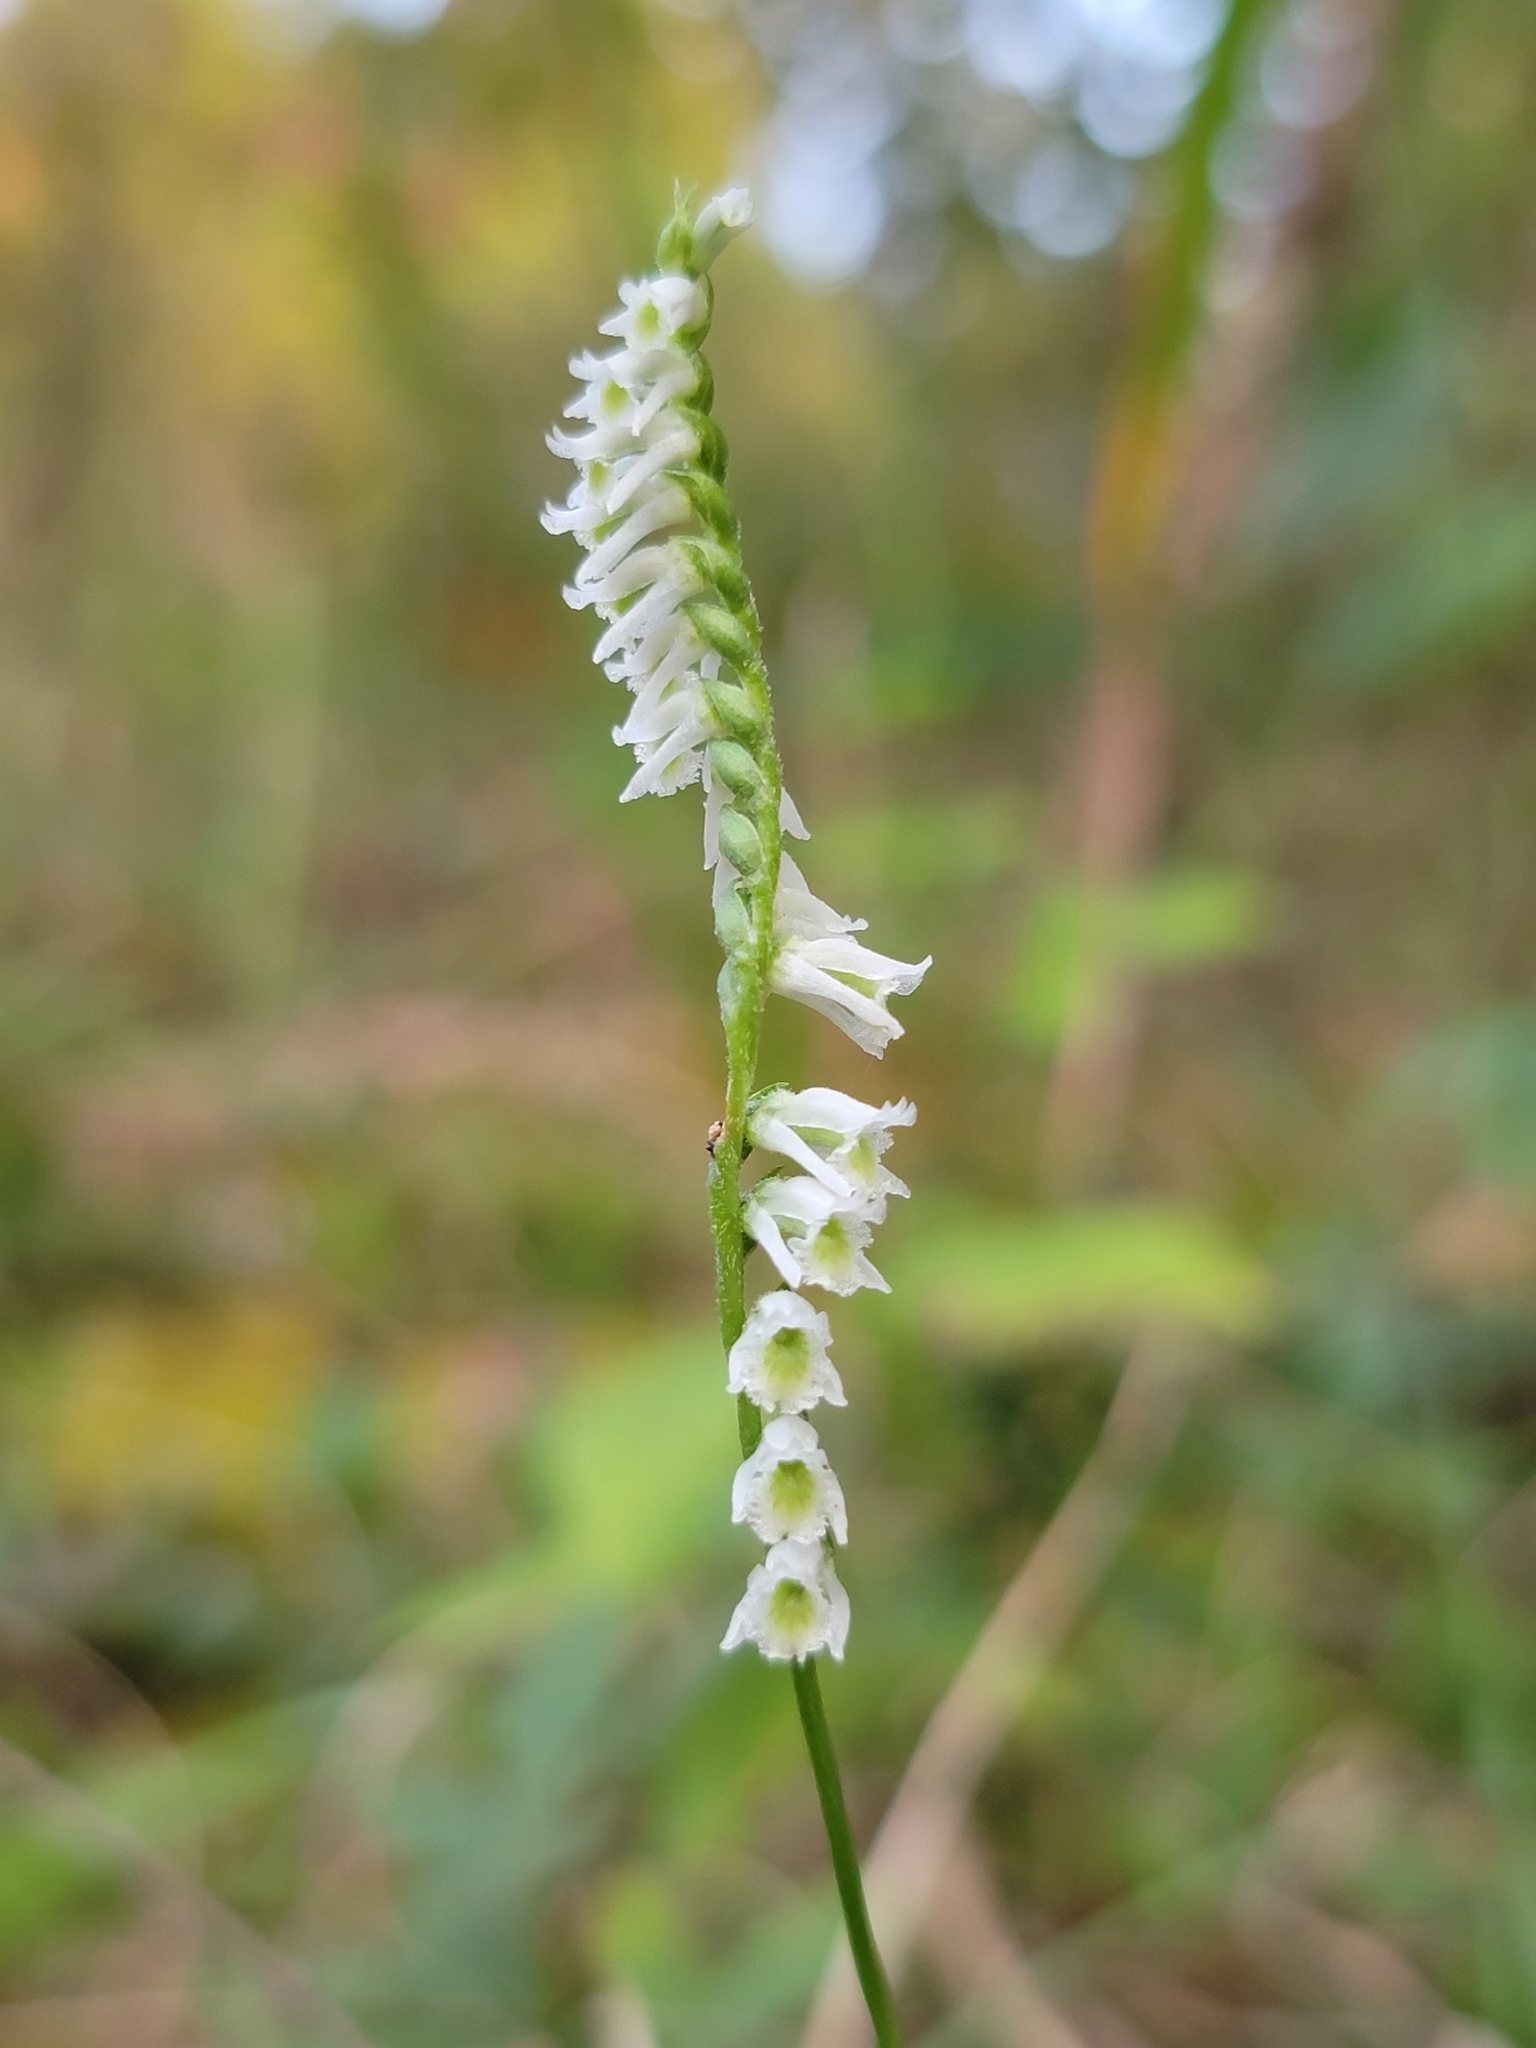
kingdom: Plantae
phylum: Tracheophyta
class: Liliopsida
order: Asparagales
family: Orchidaceae
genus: Spiranthes
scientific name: Spiranthes lacera
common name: Northern slender ladies'-tresses
